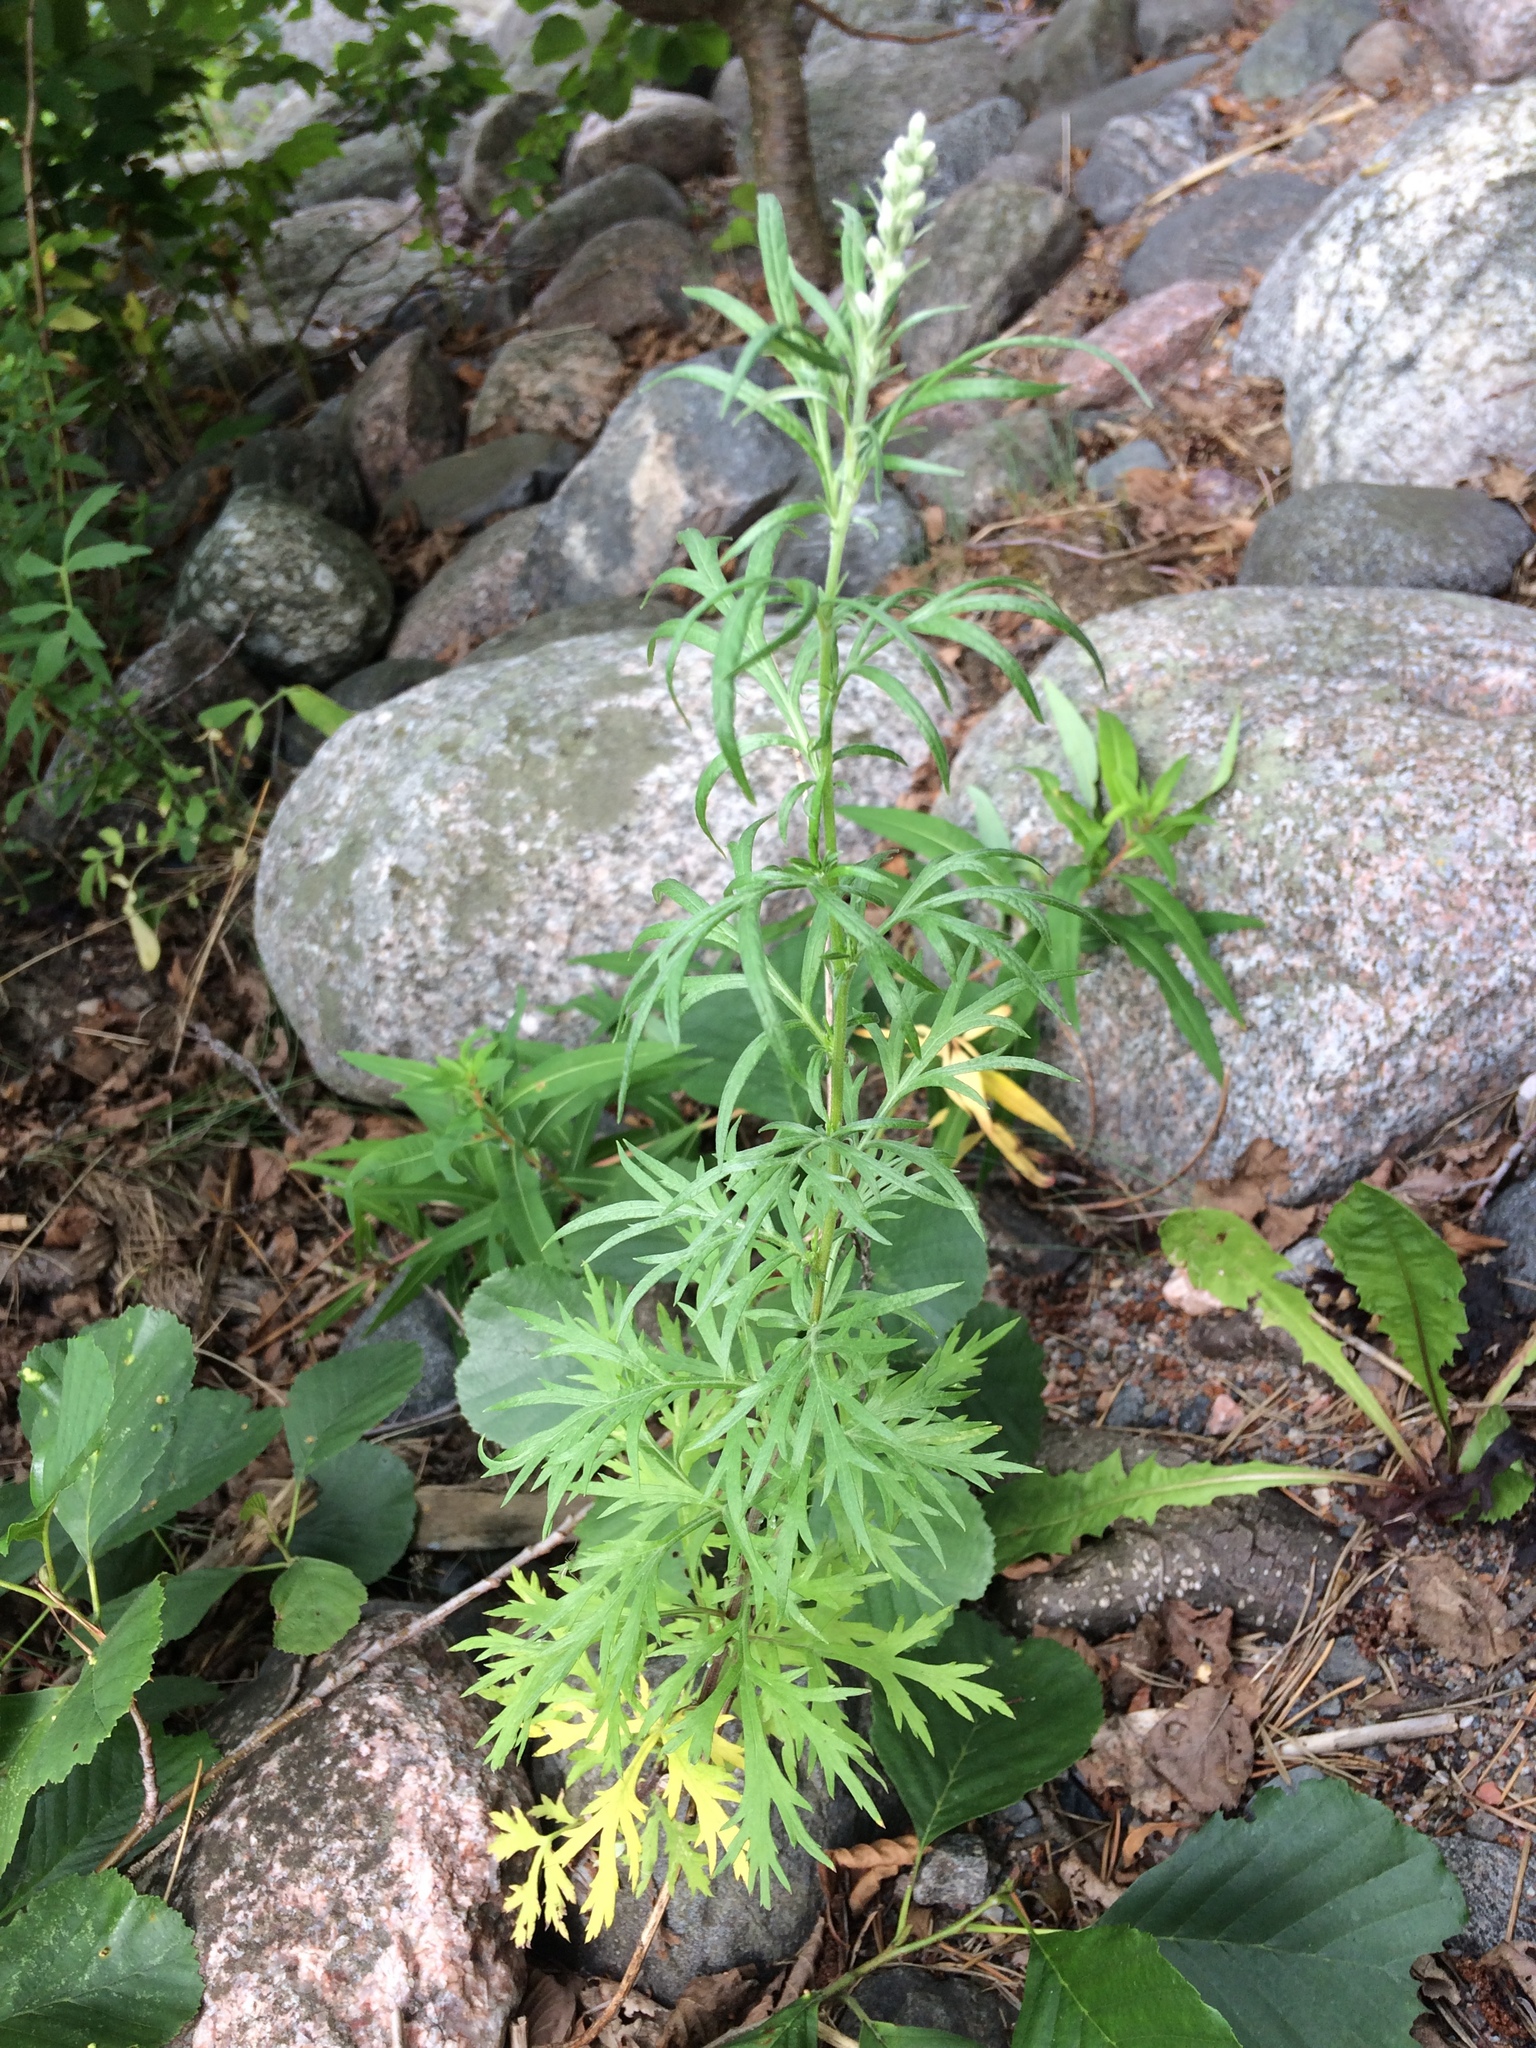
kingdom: Plantae
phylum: Tracheophyta
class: Magnoliopsida
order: Asterales
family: Asteraceae
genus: Artemisia
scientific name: Artemisia vulgaris
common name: Mugwort
